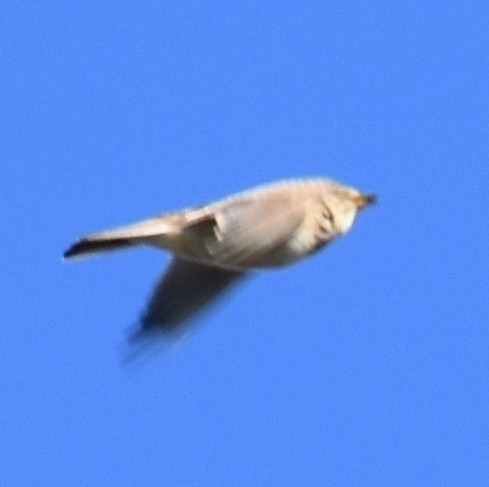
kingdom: Animalia
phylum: Chordata
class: Aves
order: Passeriformes
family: Alaudidae
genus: Alauda
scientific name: Alauda arvensis
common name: Eurasian skylark
